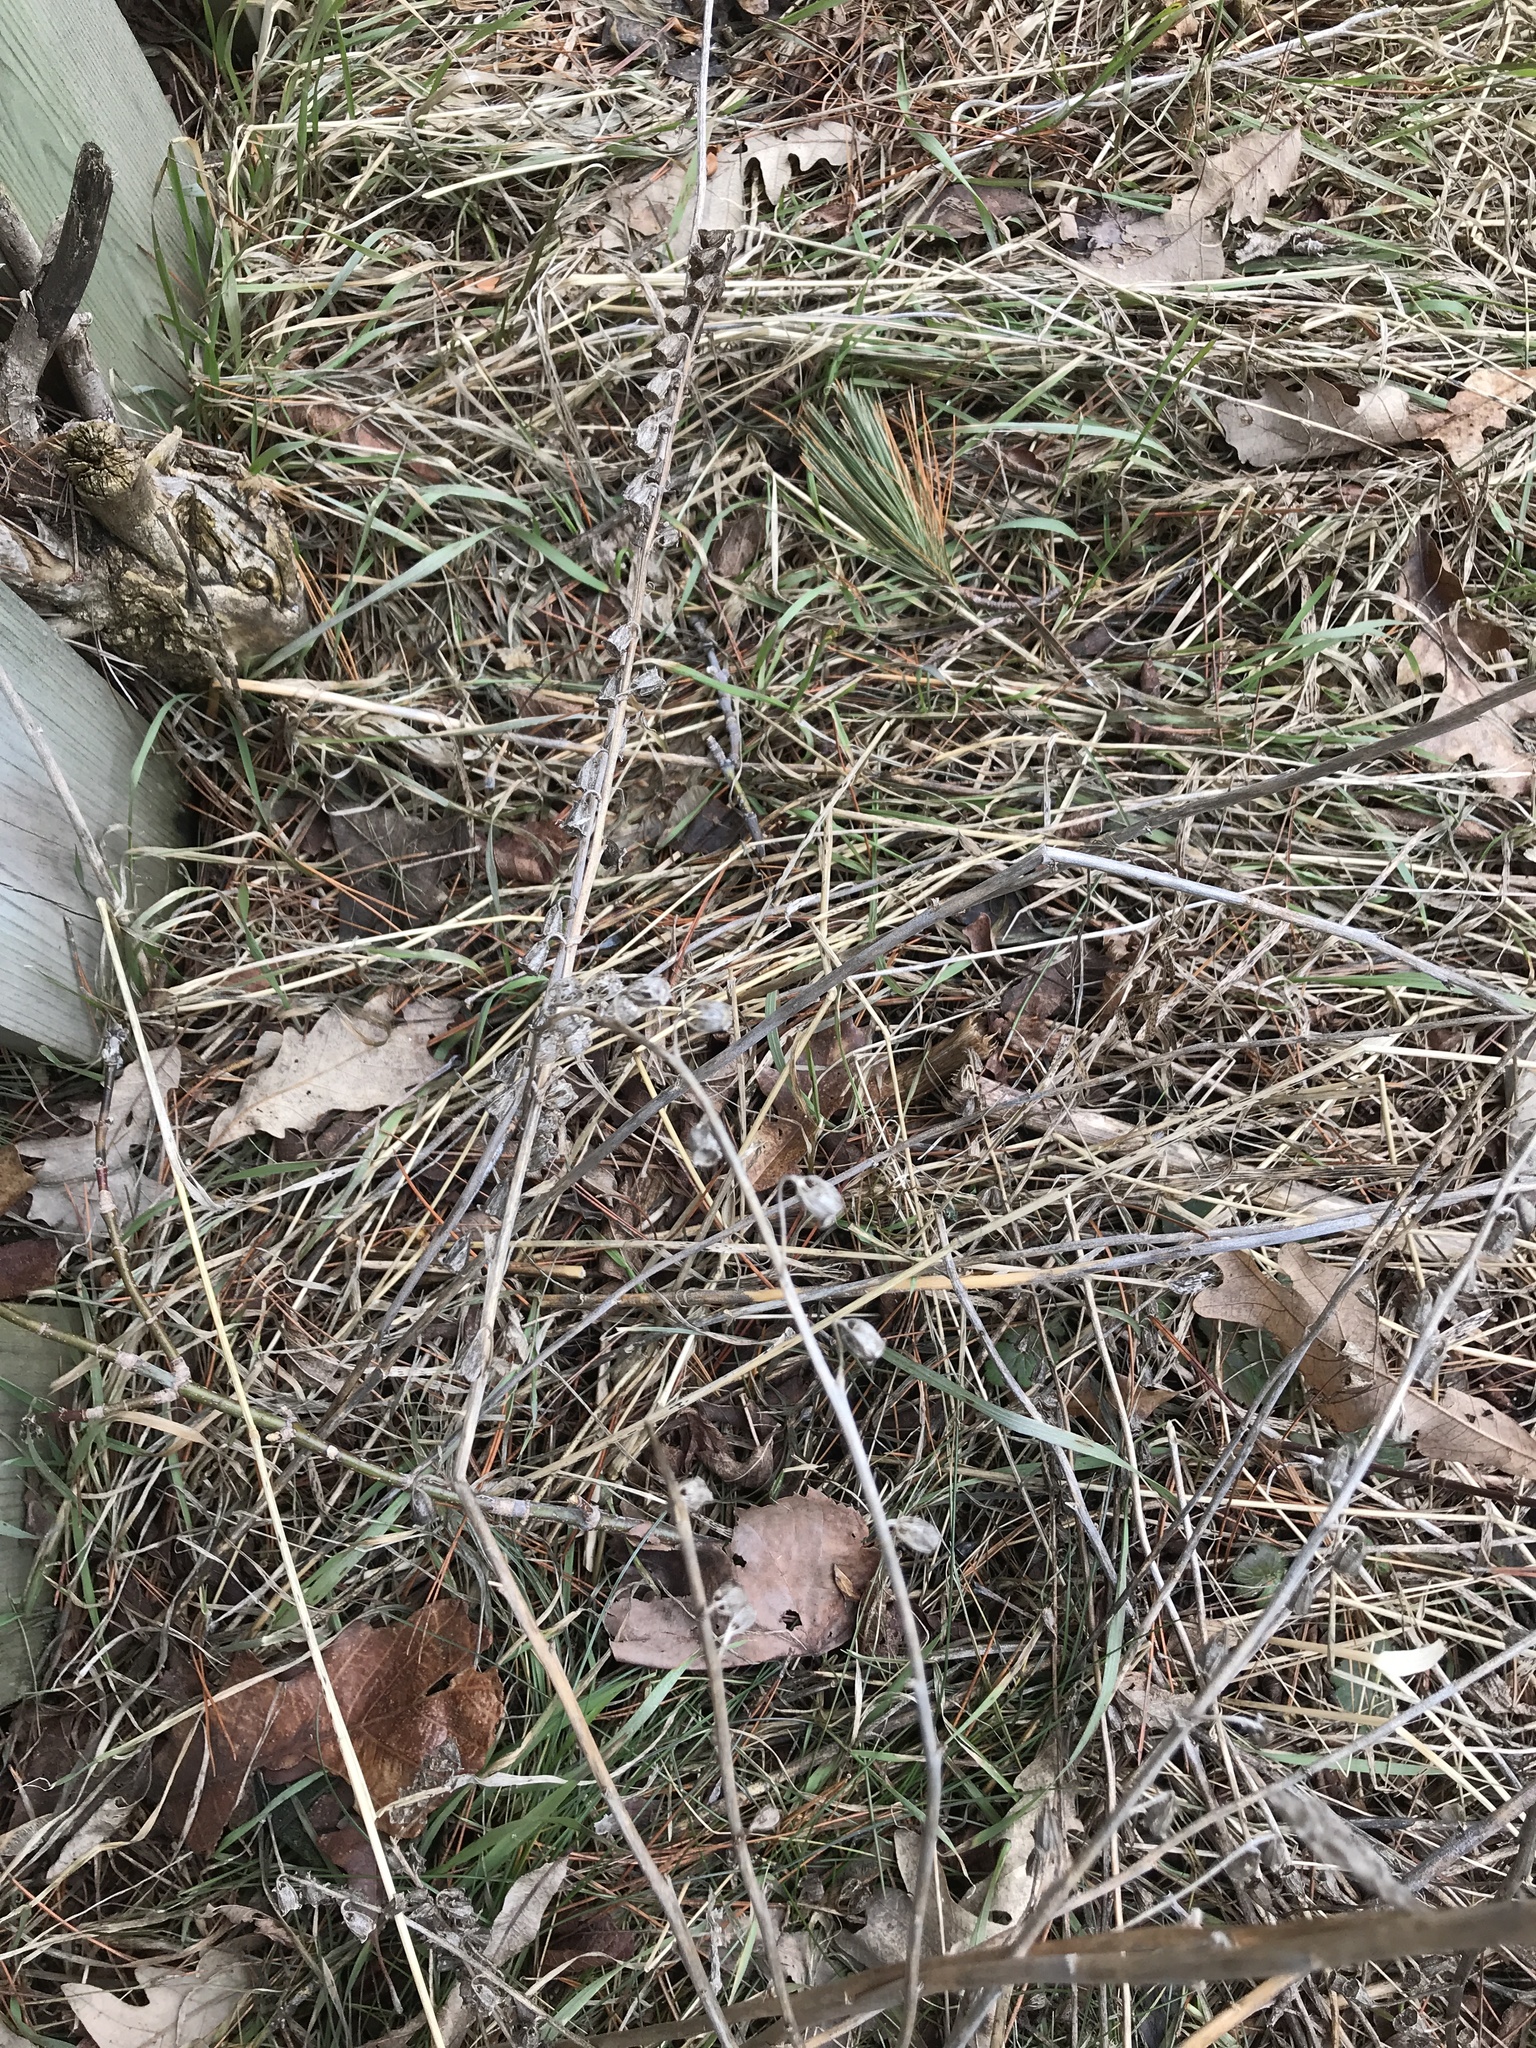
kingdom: Plantae
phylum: Tracheophyta
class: Magnoliopsida
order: Asterales
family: Campanulaceae
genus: Campanula
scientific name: Campanula rapunculoides
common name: Creeping bellflower
